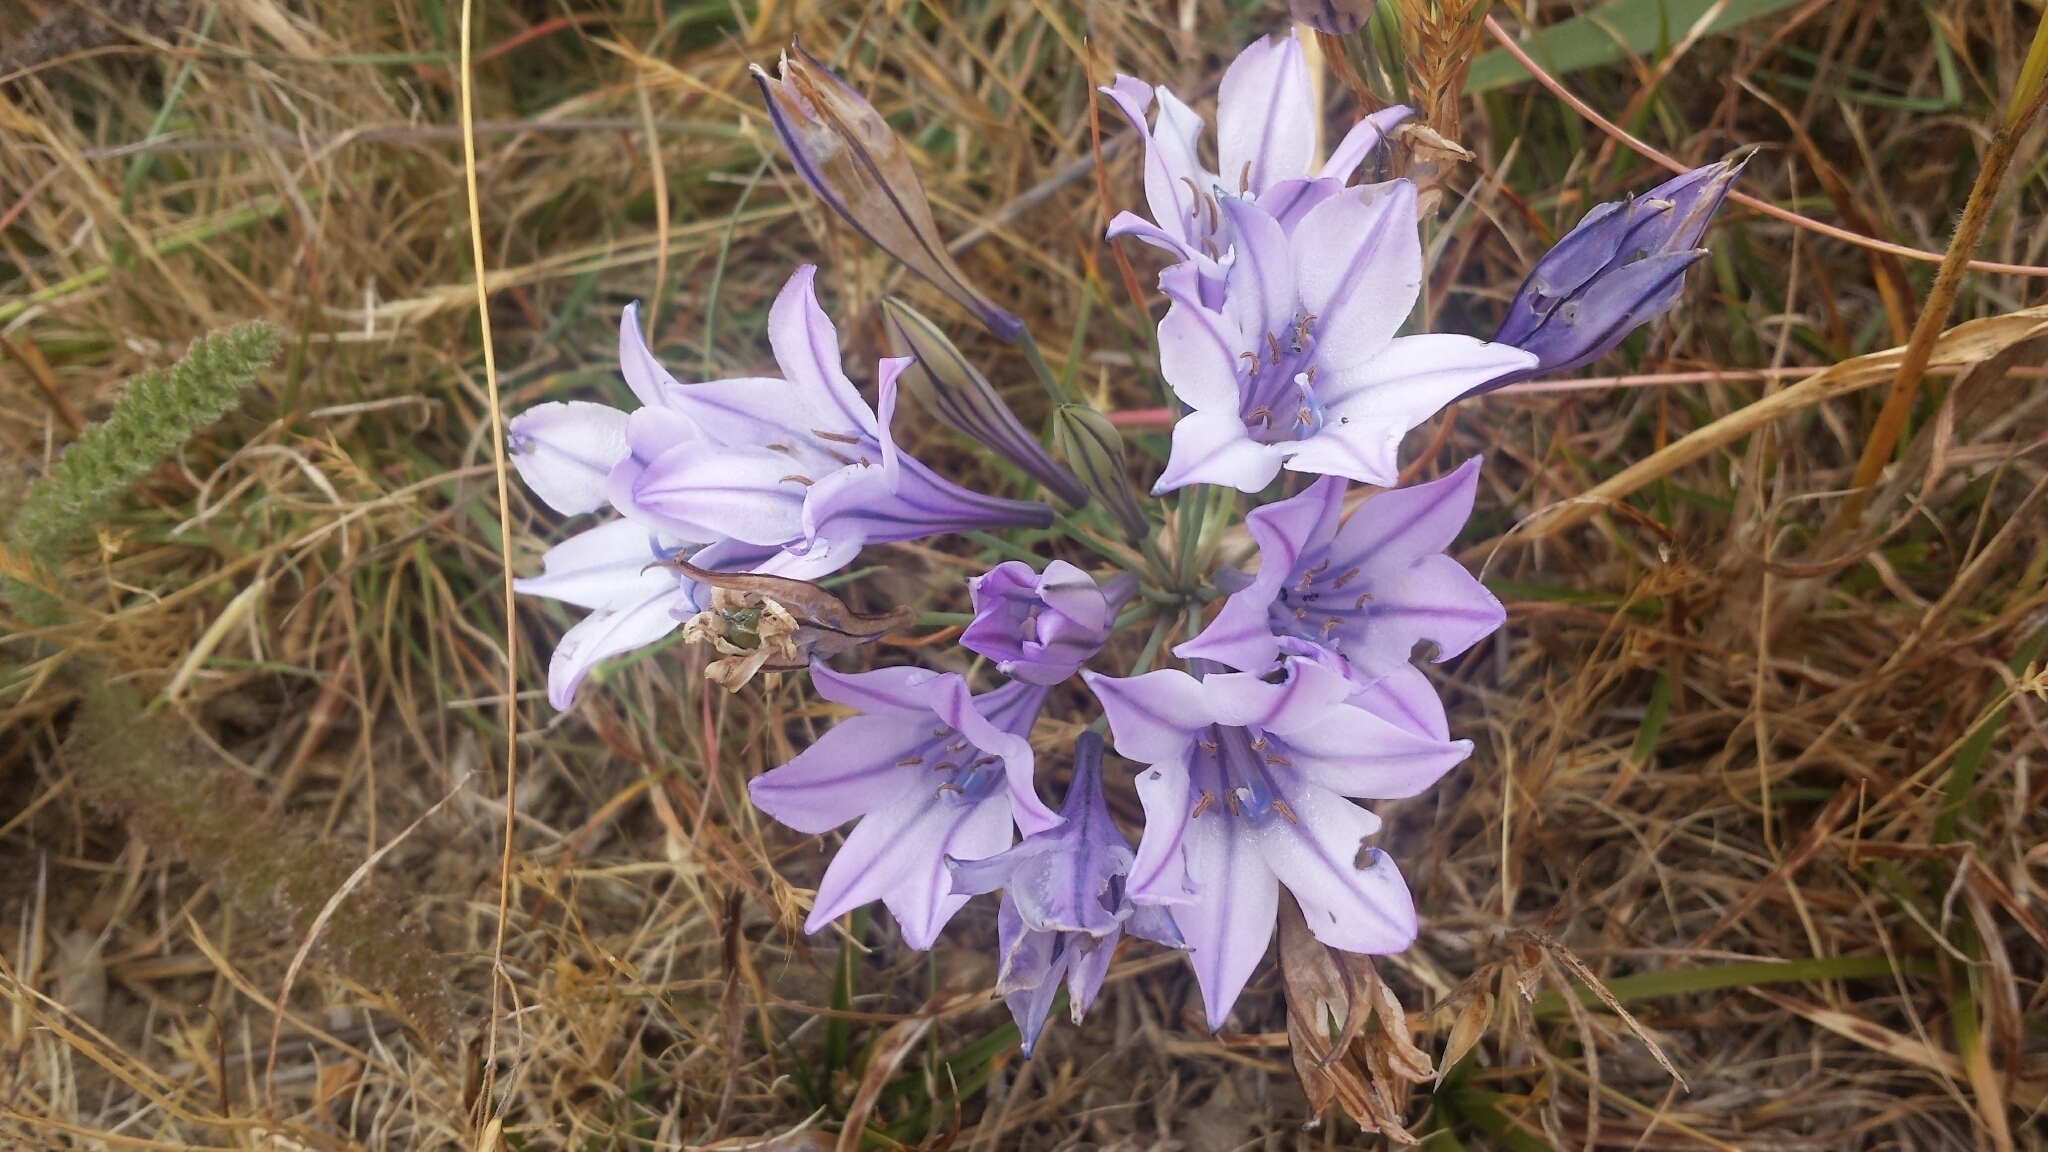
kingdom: Plantae
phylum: Tracheophyta
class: Liliopsida
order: Asparagales
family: Asparagaceae
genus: Triteleia
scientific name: Triteleia laxa
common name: Triplet-lily
